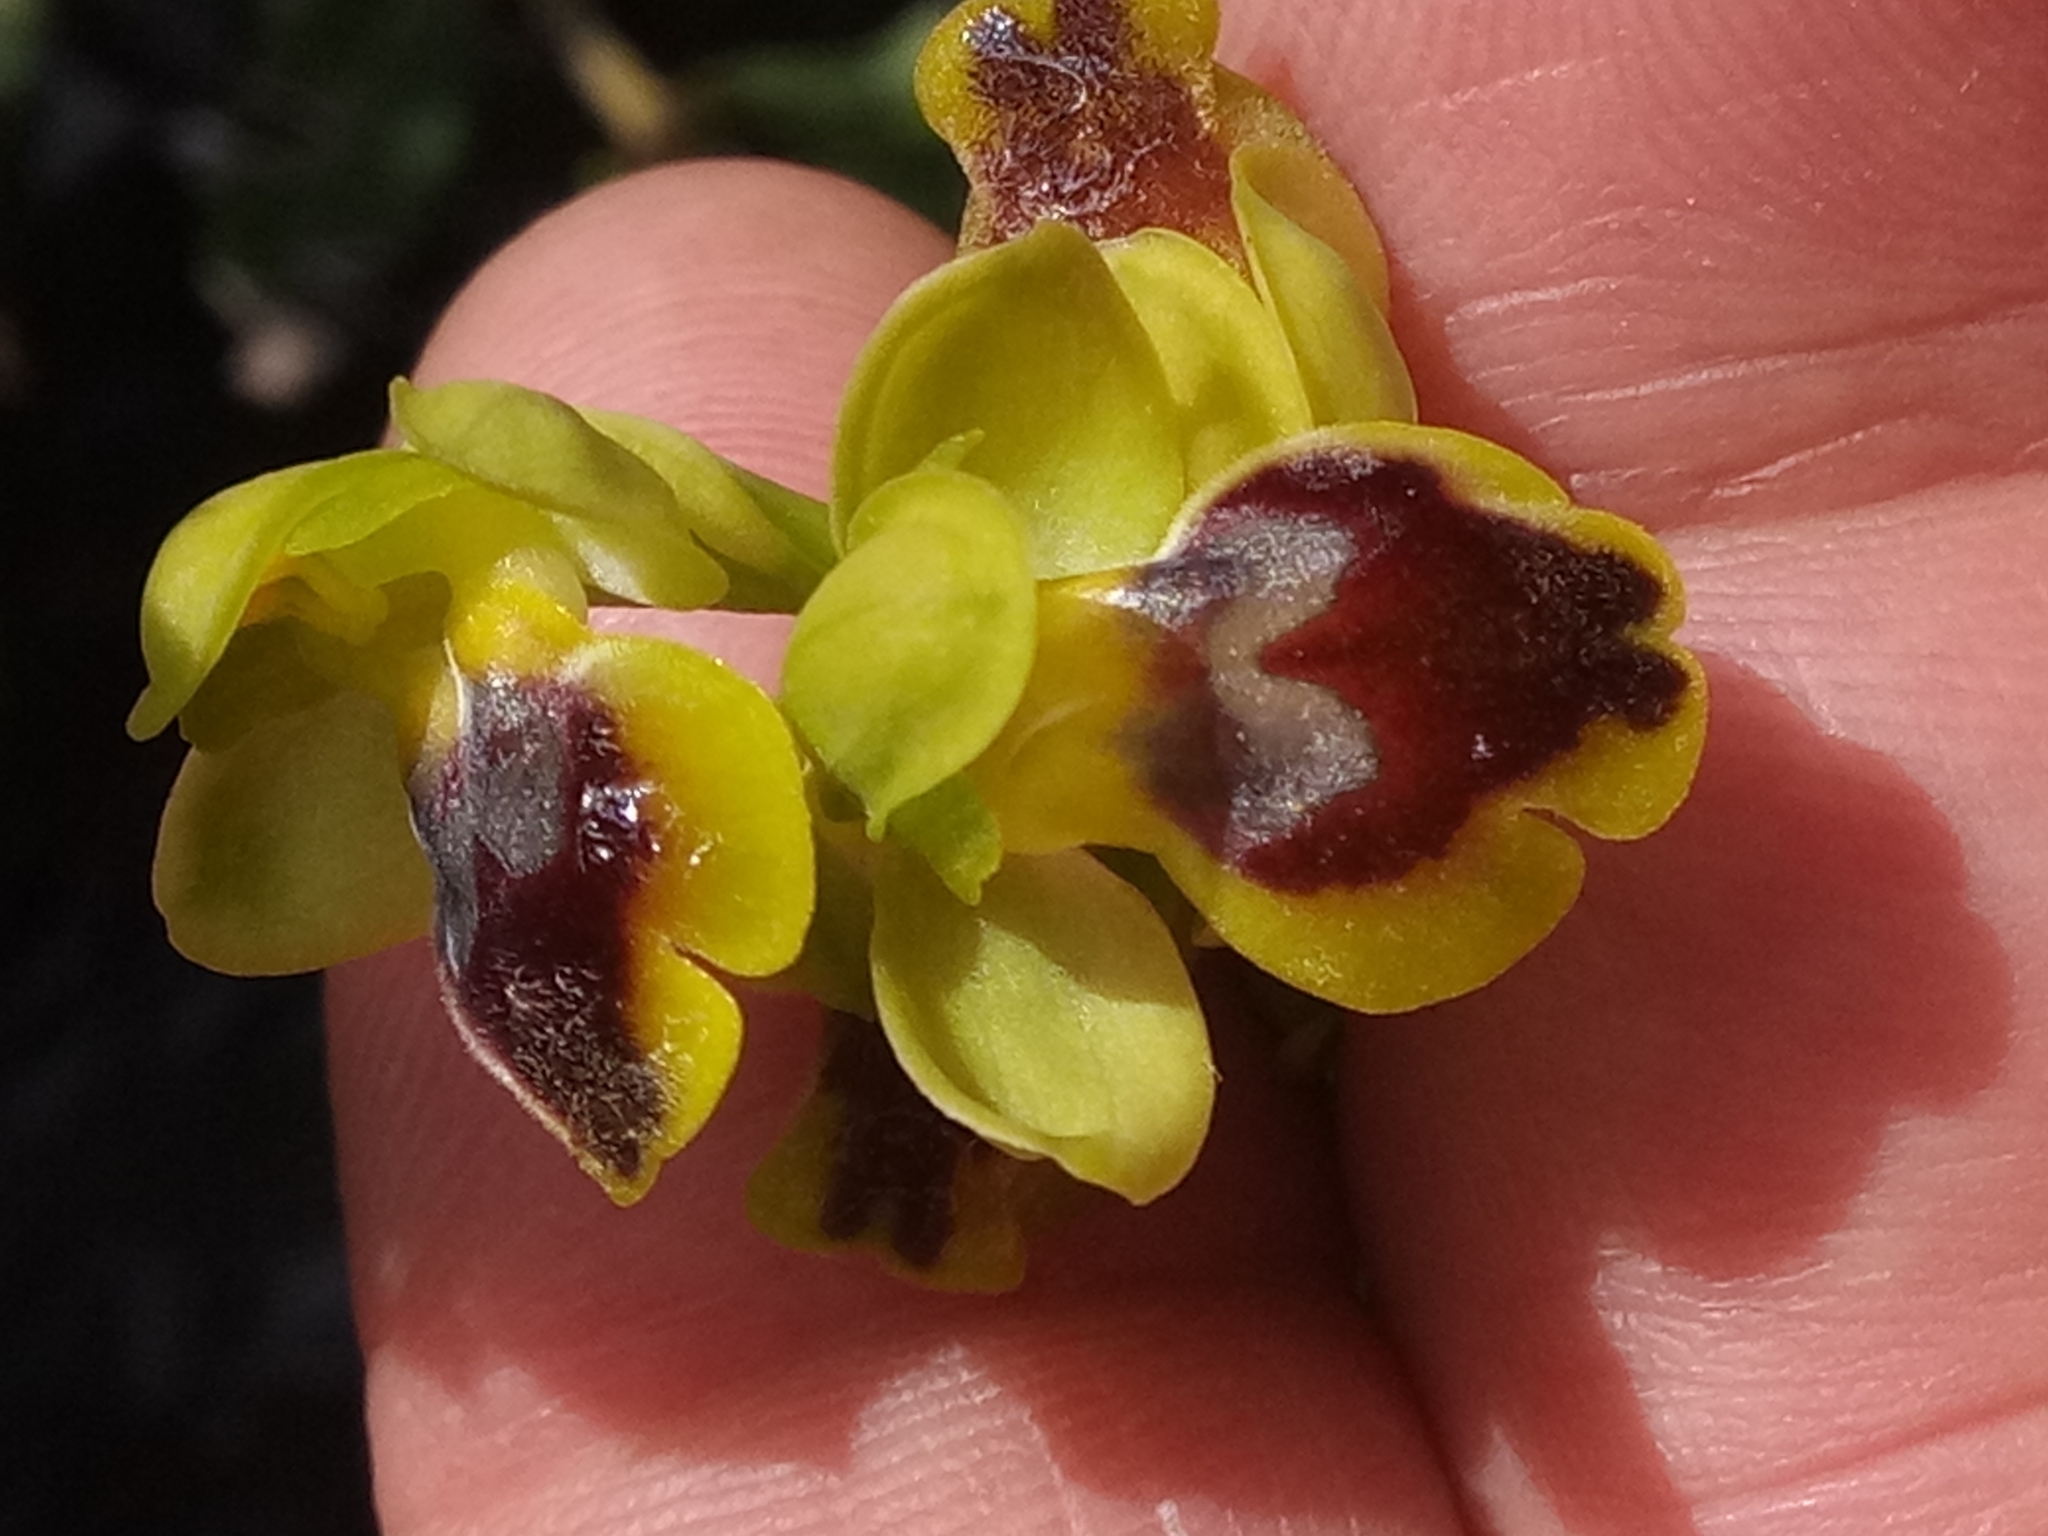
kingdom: Plantae
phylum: Tracheophyta
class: Liliopsida
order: Asparagales
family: Orchidaceae
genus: Ophrys
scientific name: Ophrys battandieri
